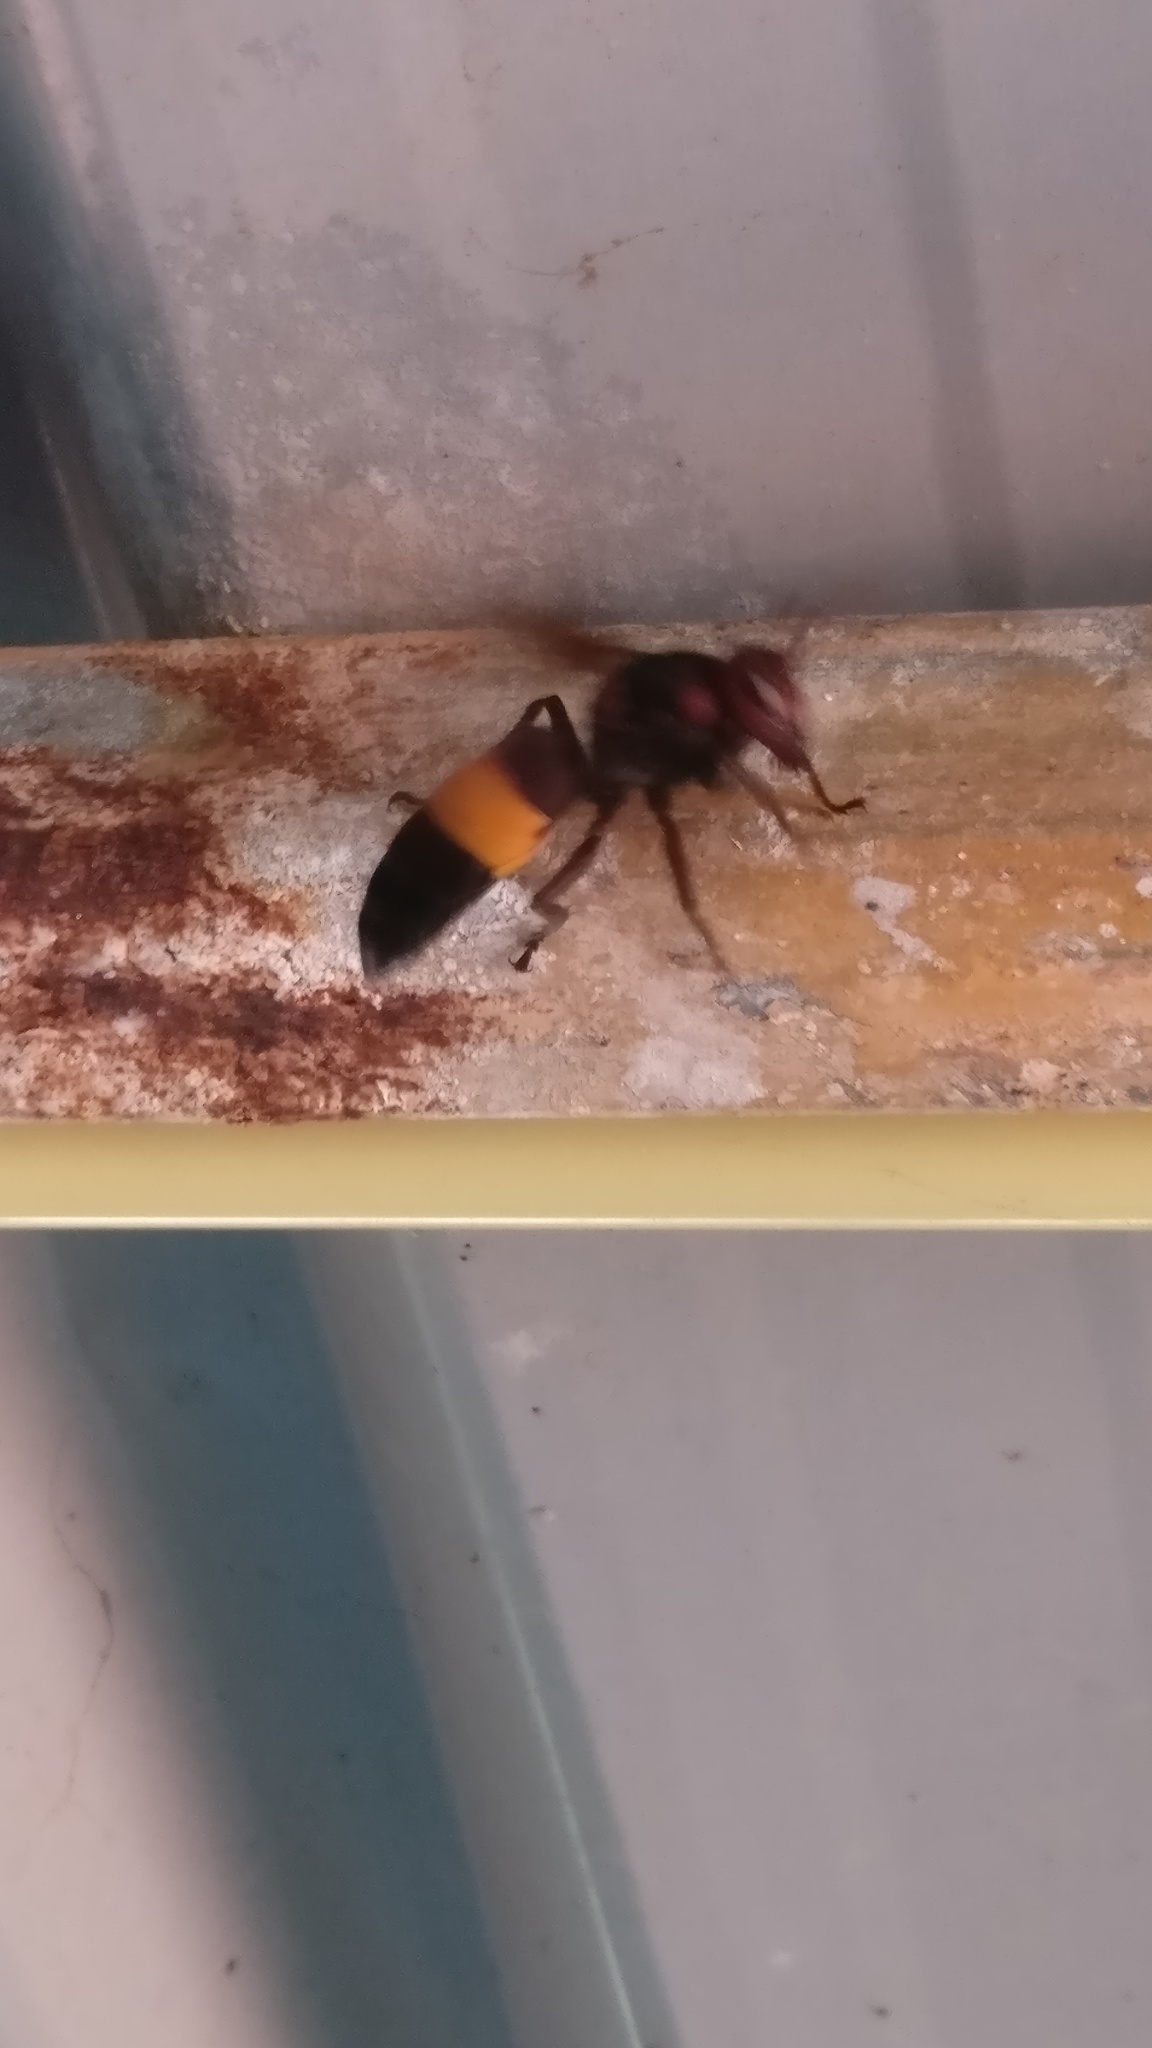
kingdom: Animalia
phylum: Arthropoda
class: Insecta
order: Hymenoptera
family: Vespidae
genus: Vespa
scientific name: Vespa tropica
